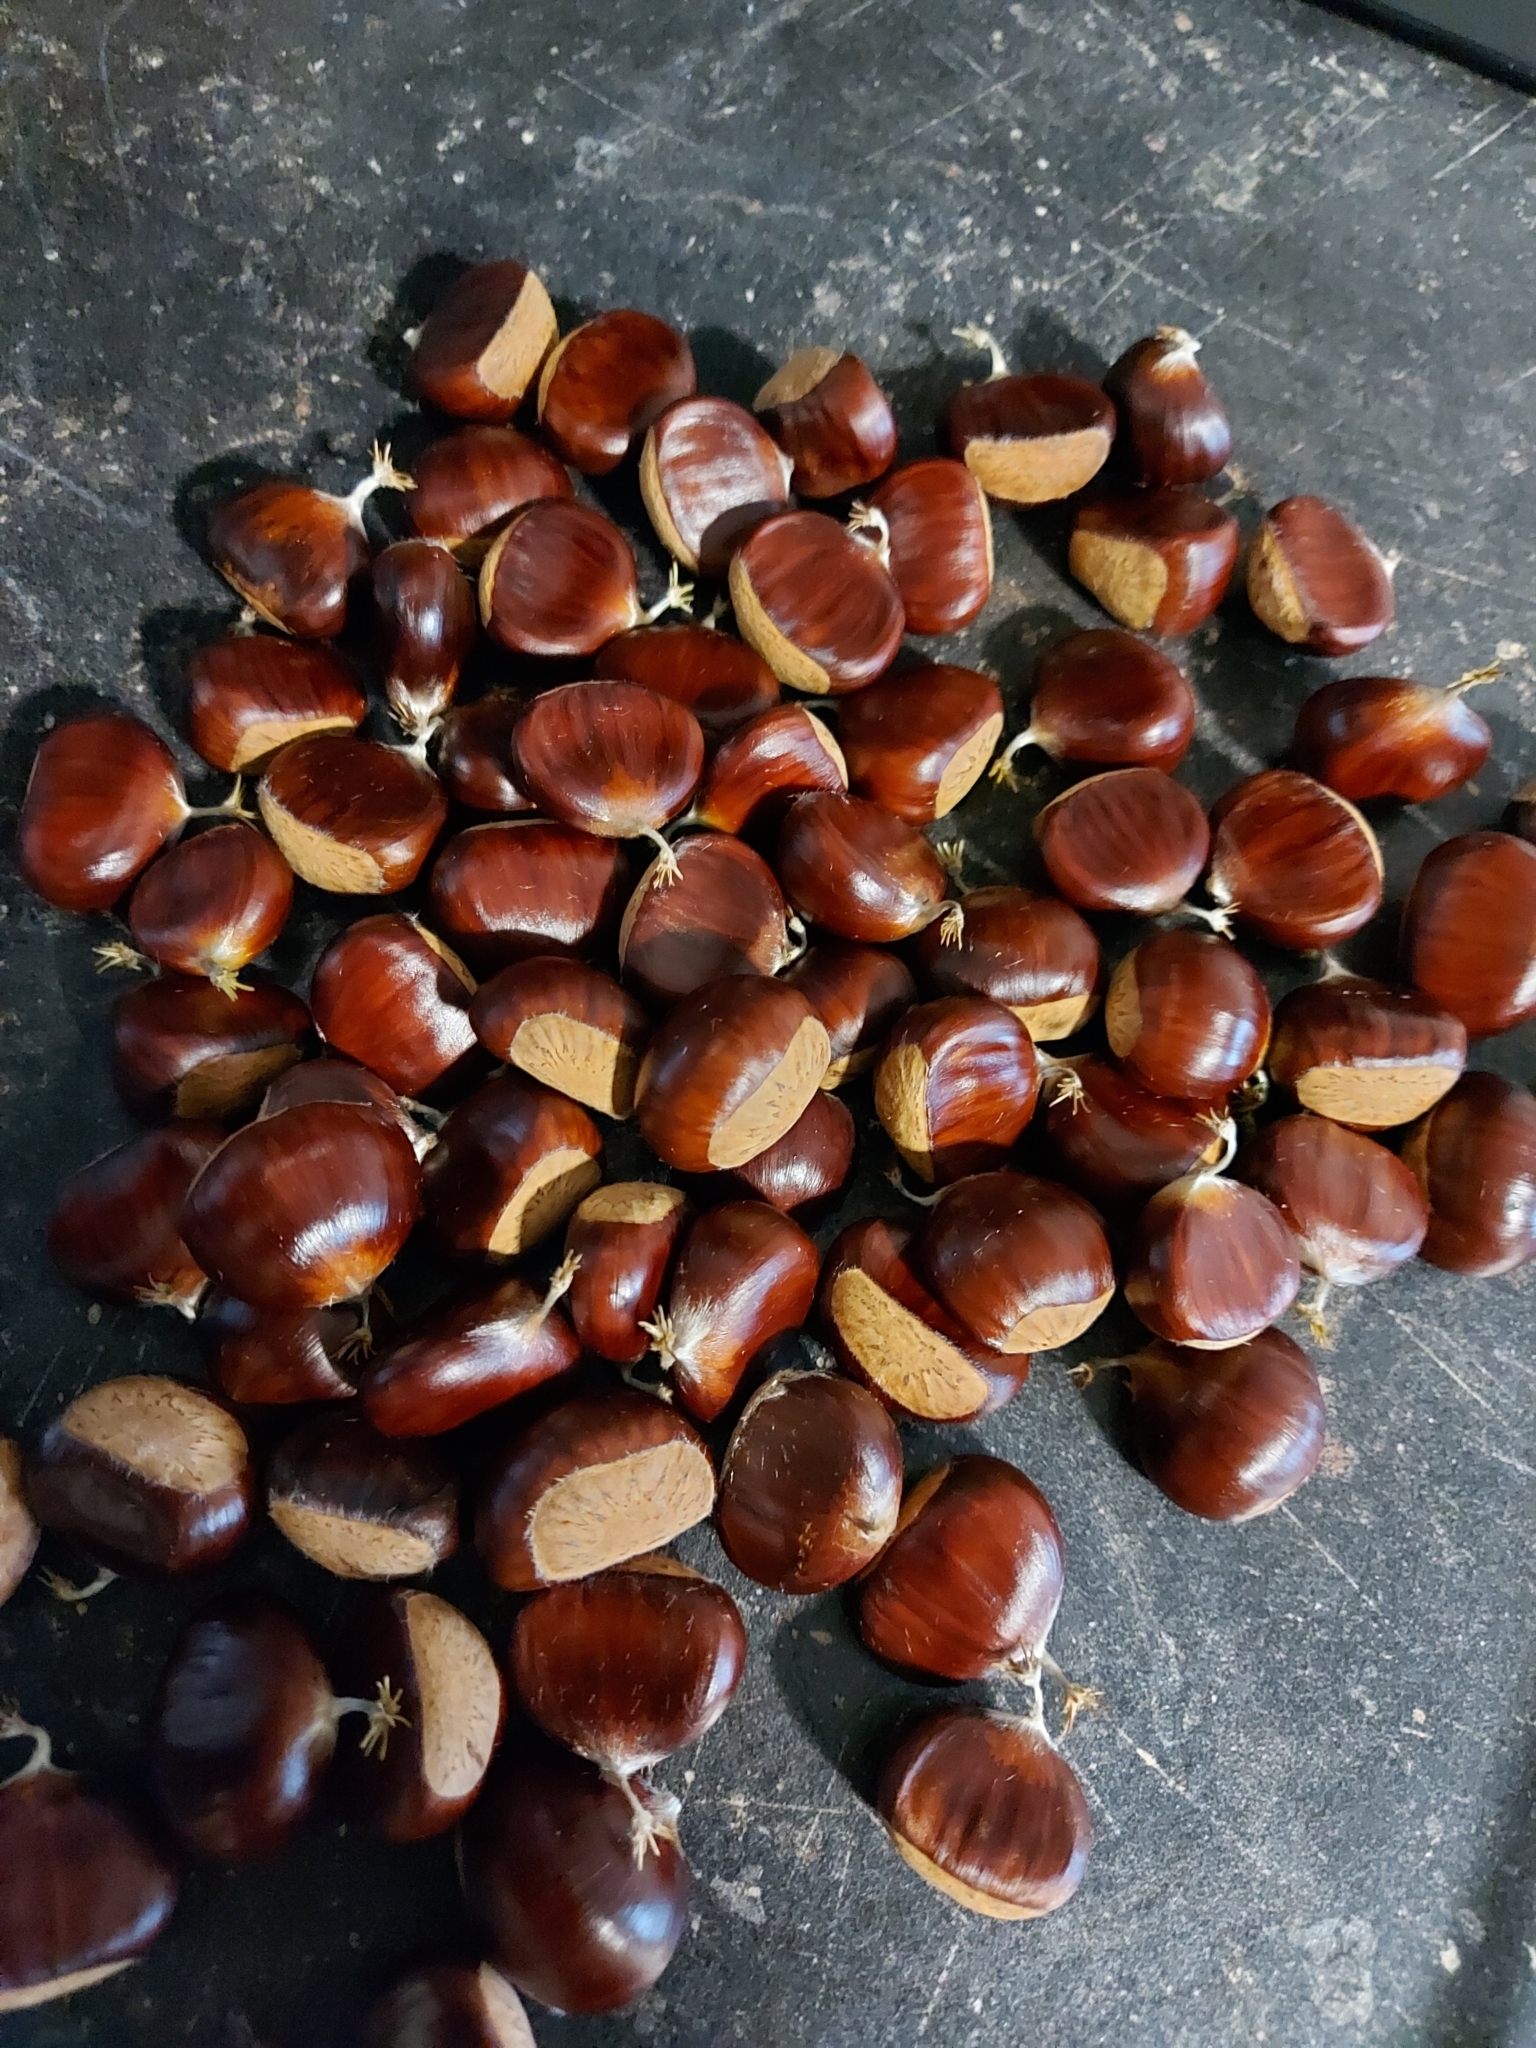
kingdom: Plantae
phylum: Tracheophyta
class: Magnoliopsida
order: Fagales
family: Fagaceae
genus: Castanea
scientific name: Castanea sativa
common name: Sweet chestnut
